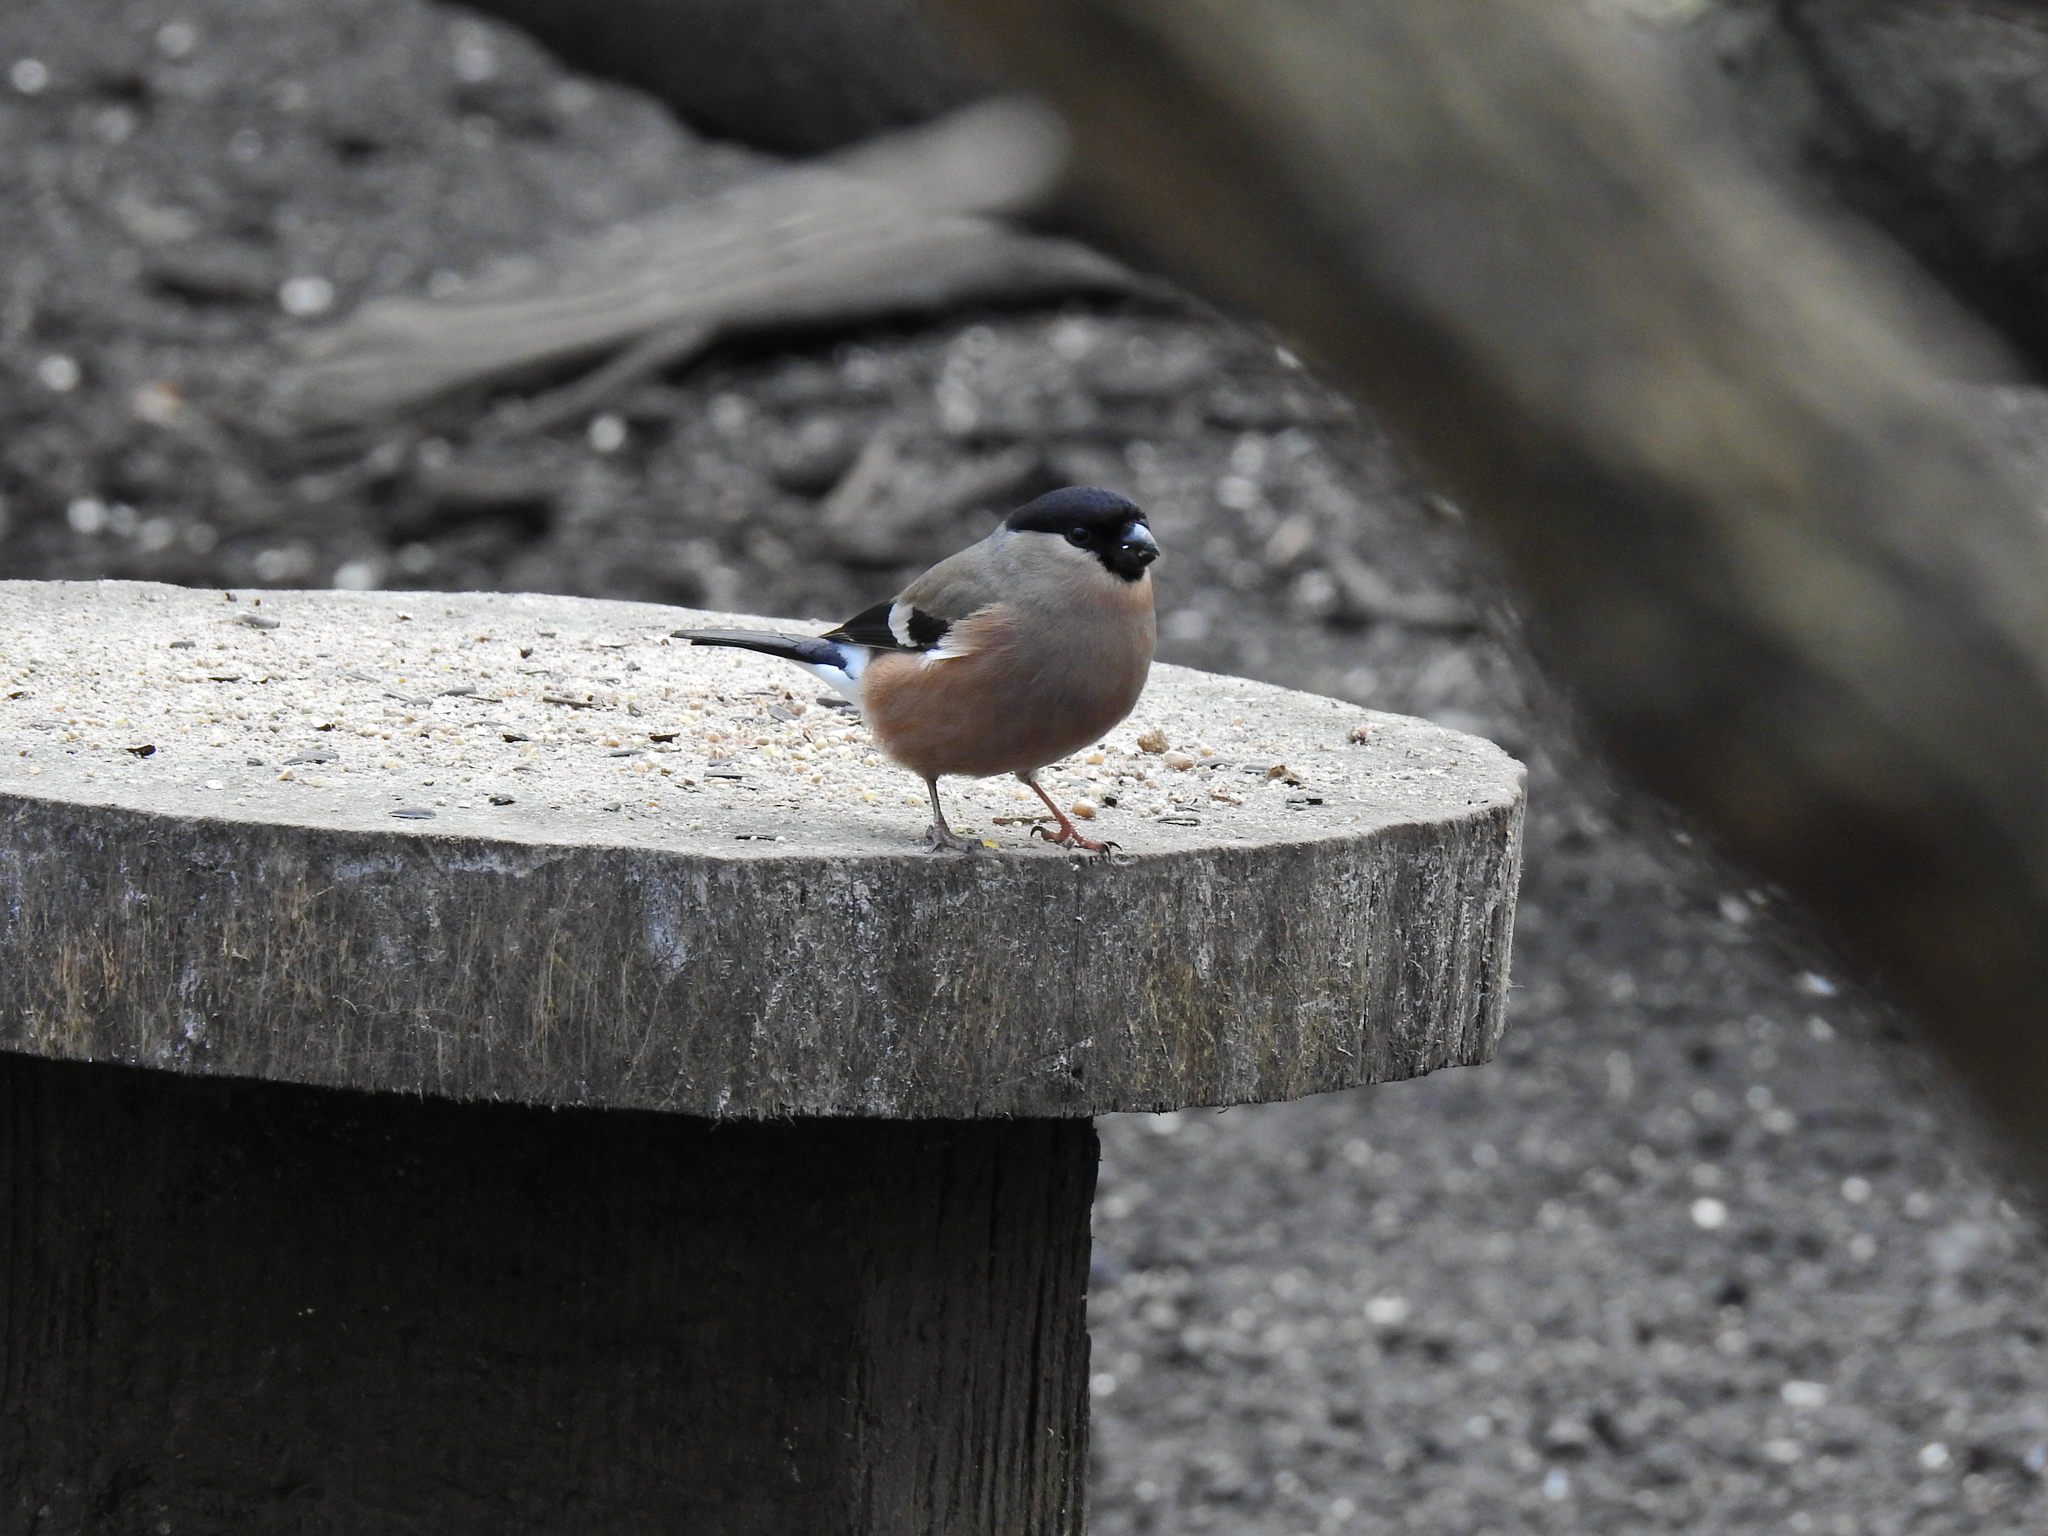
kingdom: Animalia
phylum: Chordata
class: Aves
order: Passeriformes
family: Fringillidae
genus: Pyrrhula
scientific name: Pyrrhula pyrrhula
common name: Eurasian bullfinch
